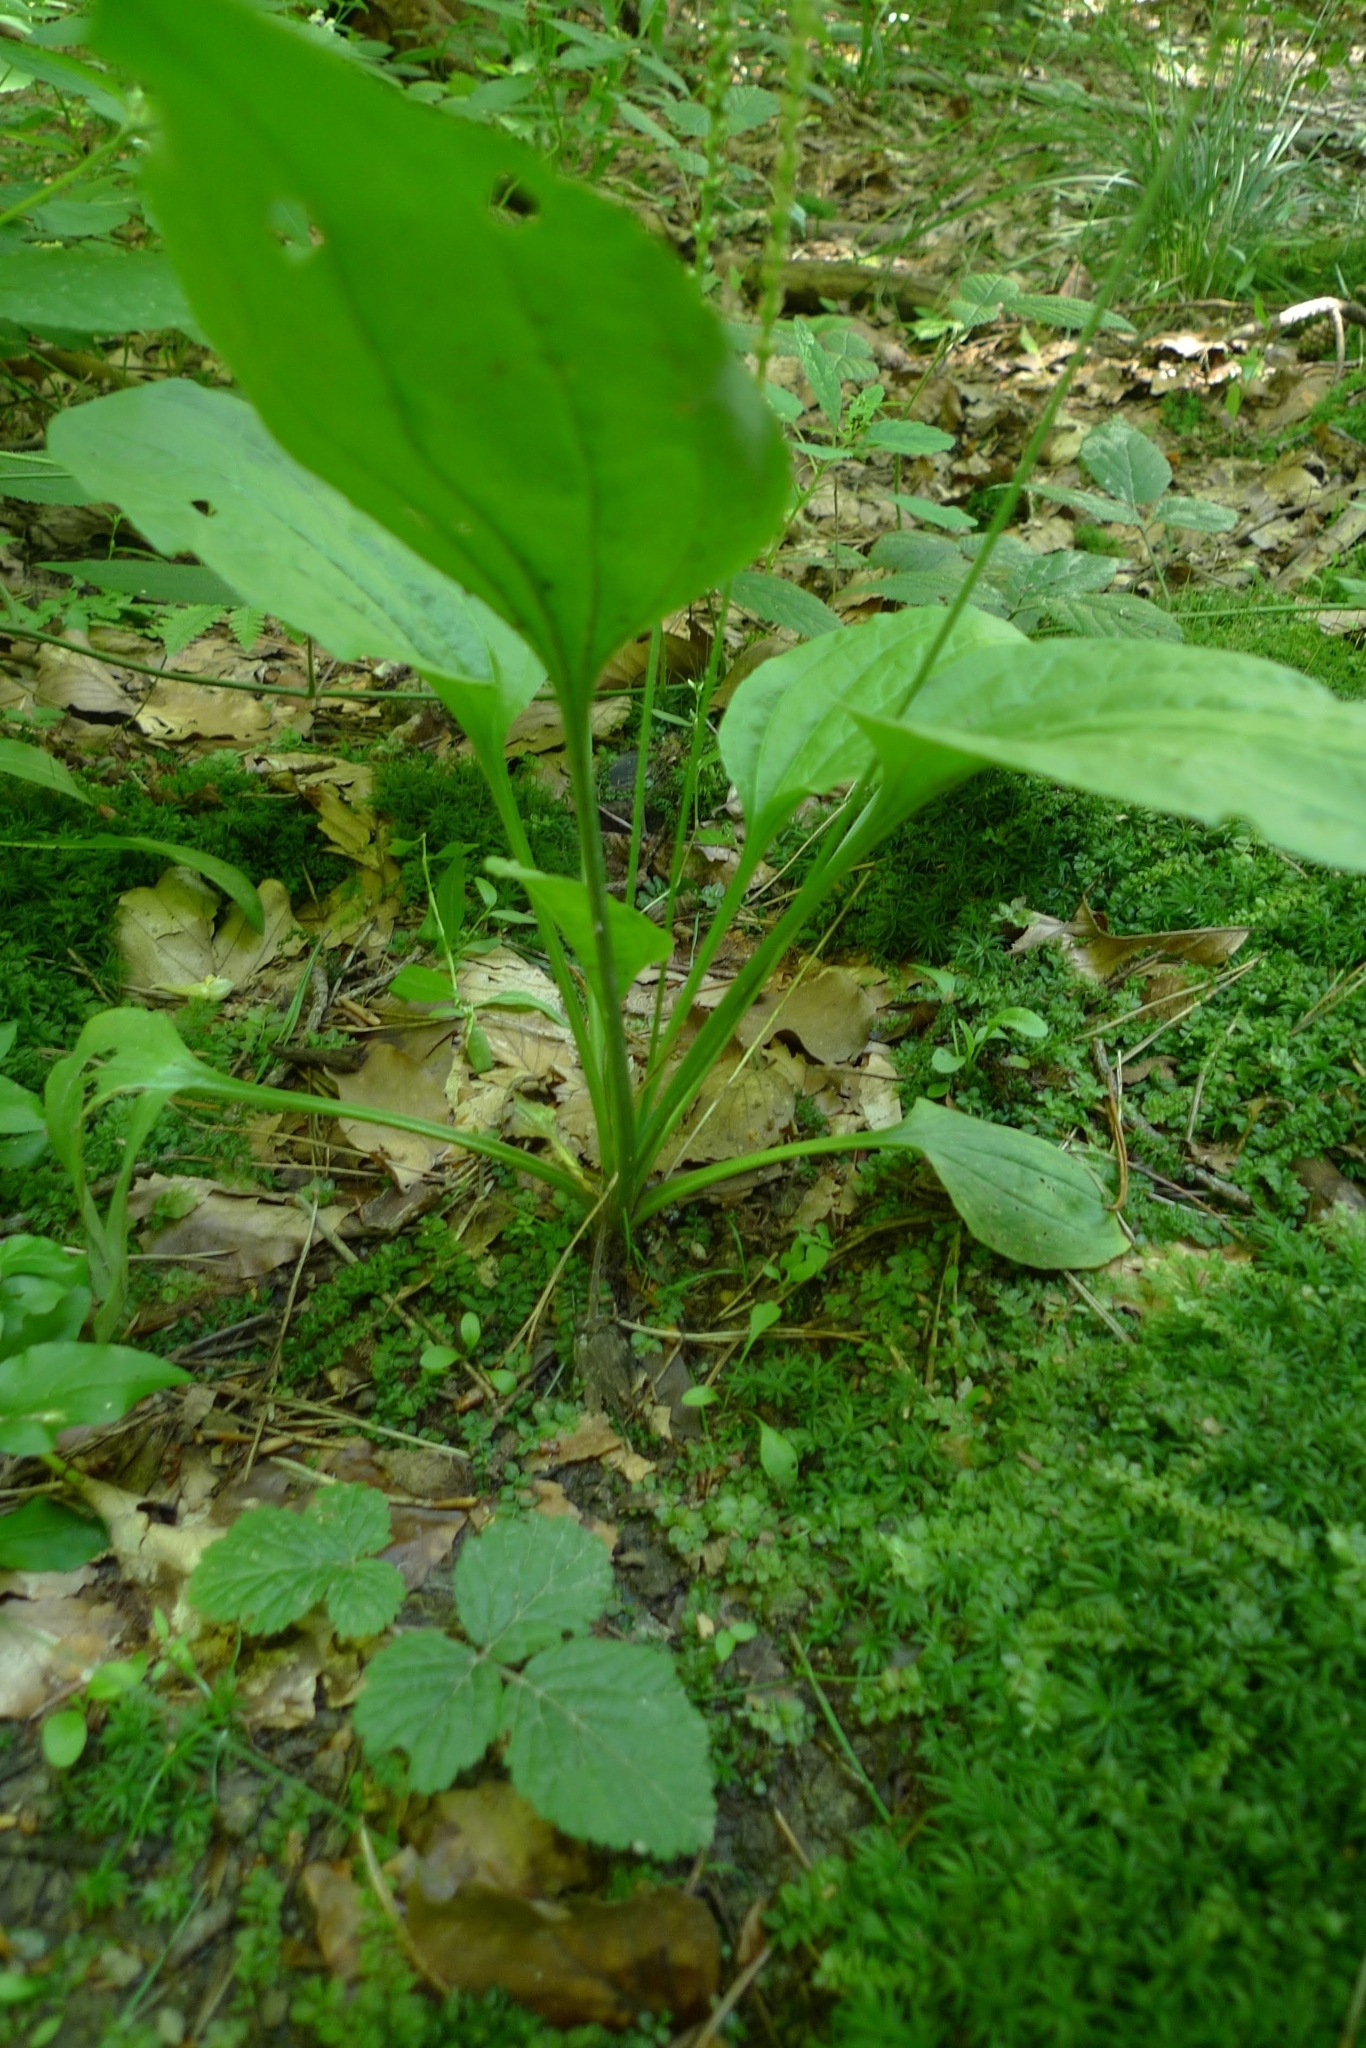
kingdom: Plantae
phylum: Tracheophyta
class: Magnoliopsida
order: Lamiales
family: Plantaginaceae
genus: Plantago
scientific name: Plantago major
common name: Common plantain
